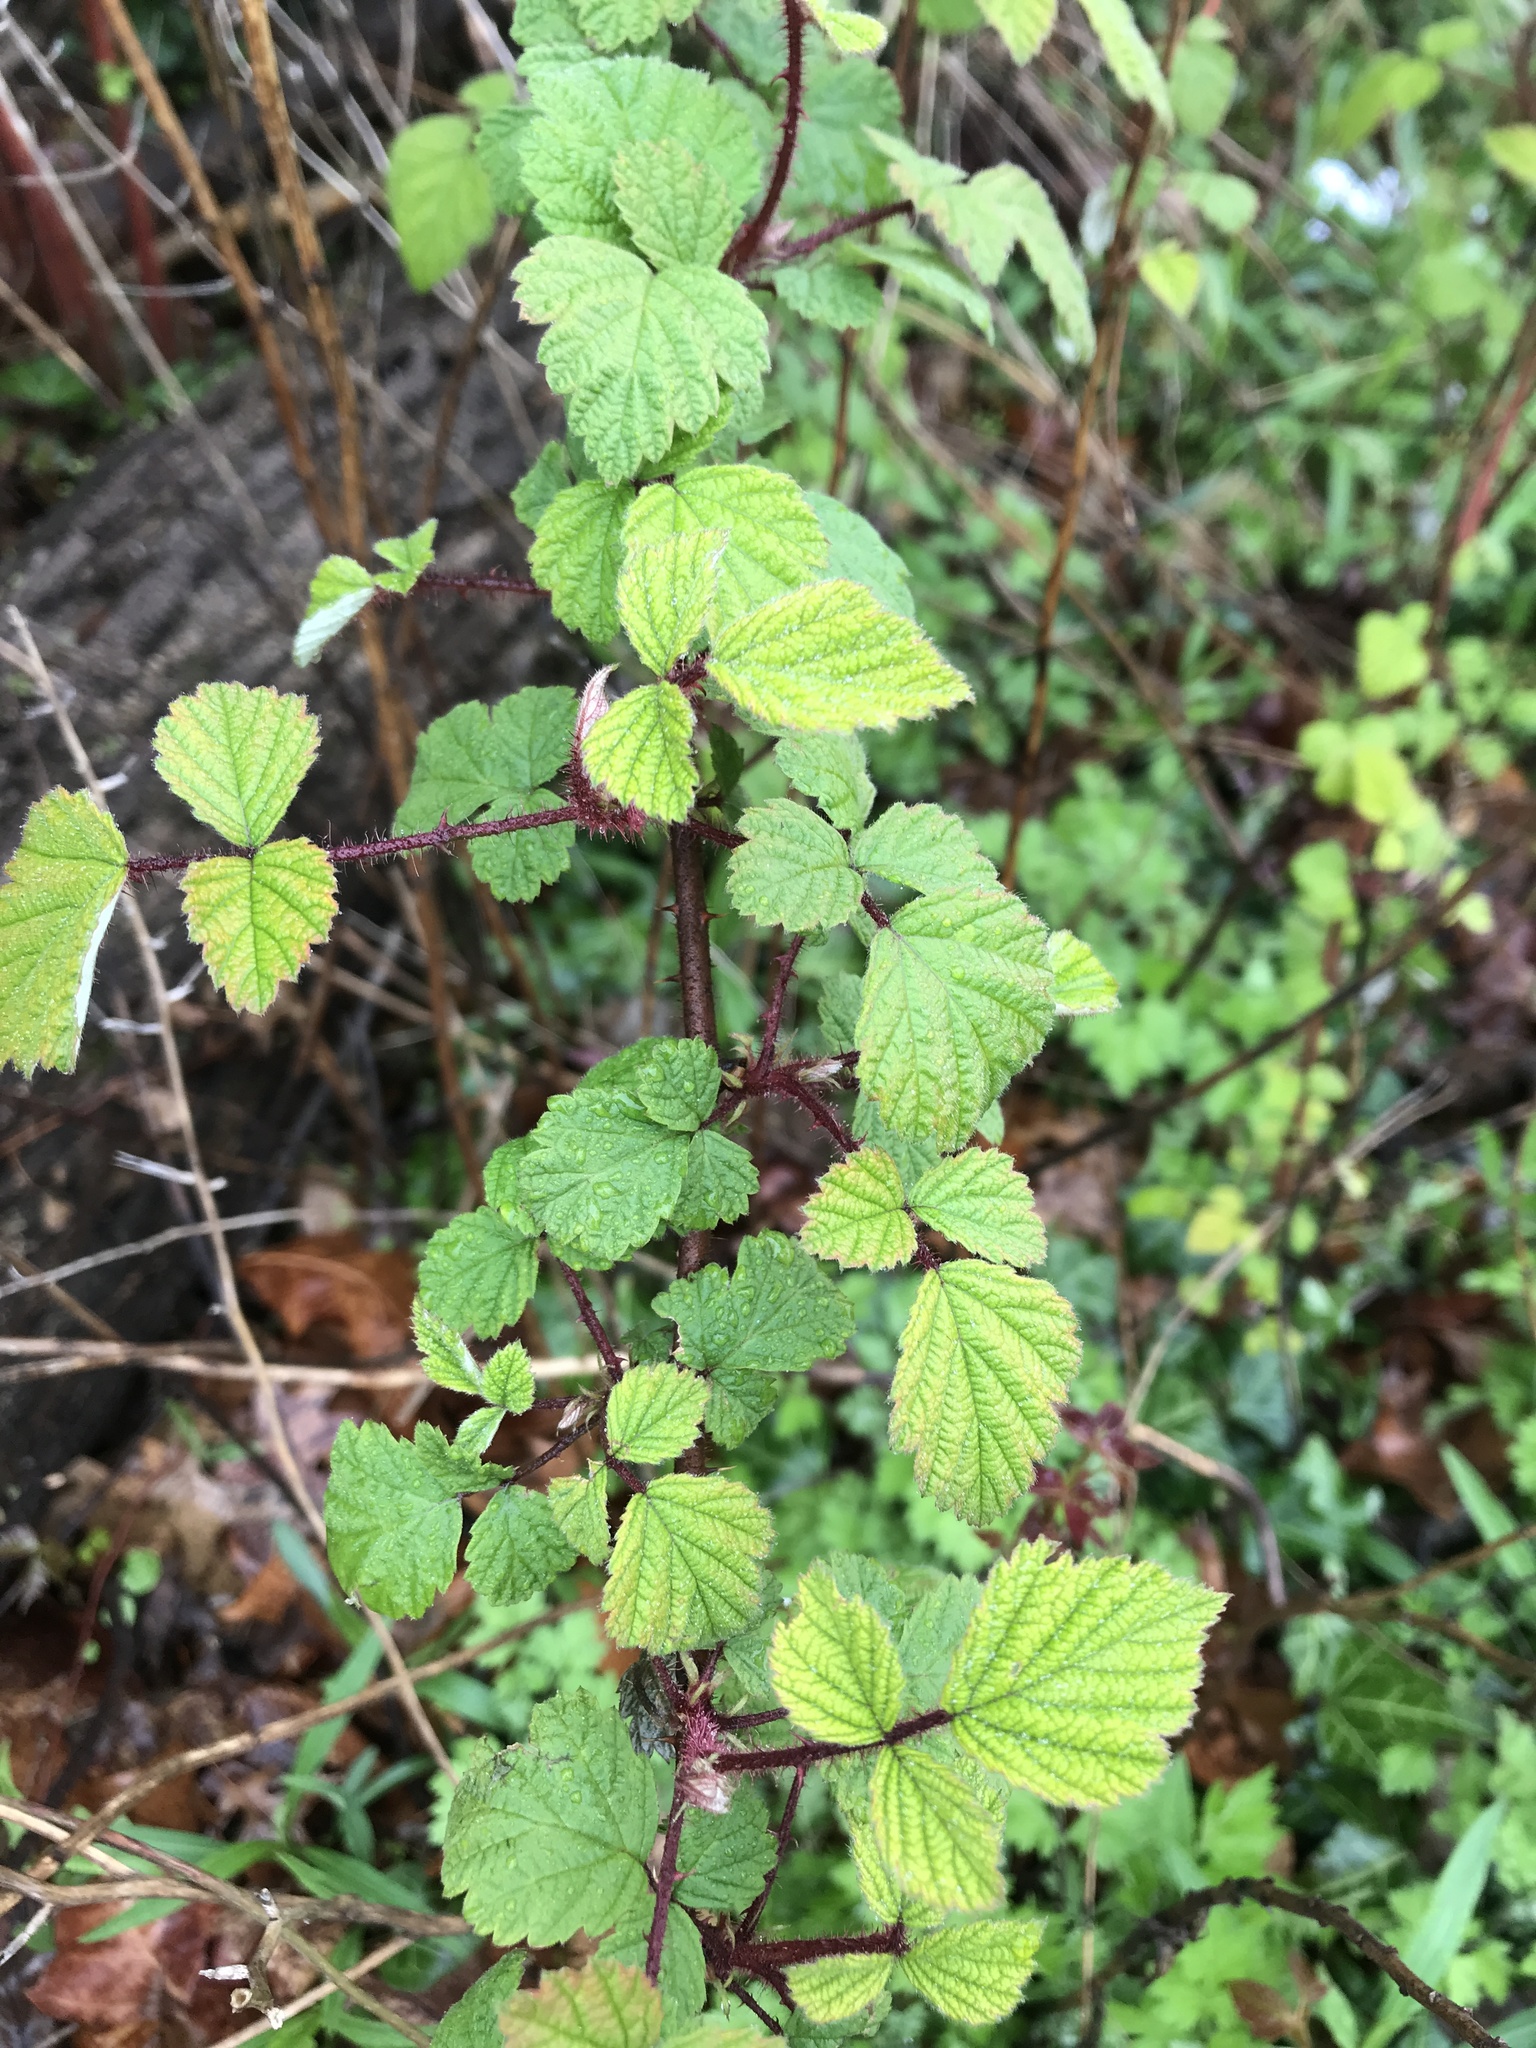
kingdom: Plantae
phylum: Tracheophyta
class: Magnoliopsida
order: Rosales
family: Rosaceae
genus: Rubus
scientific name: Rubus phoenicolasius
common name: Japanese wineberry
